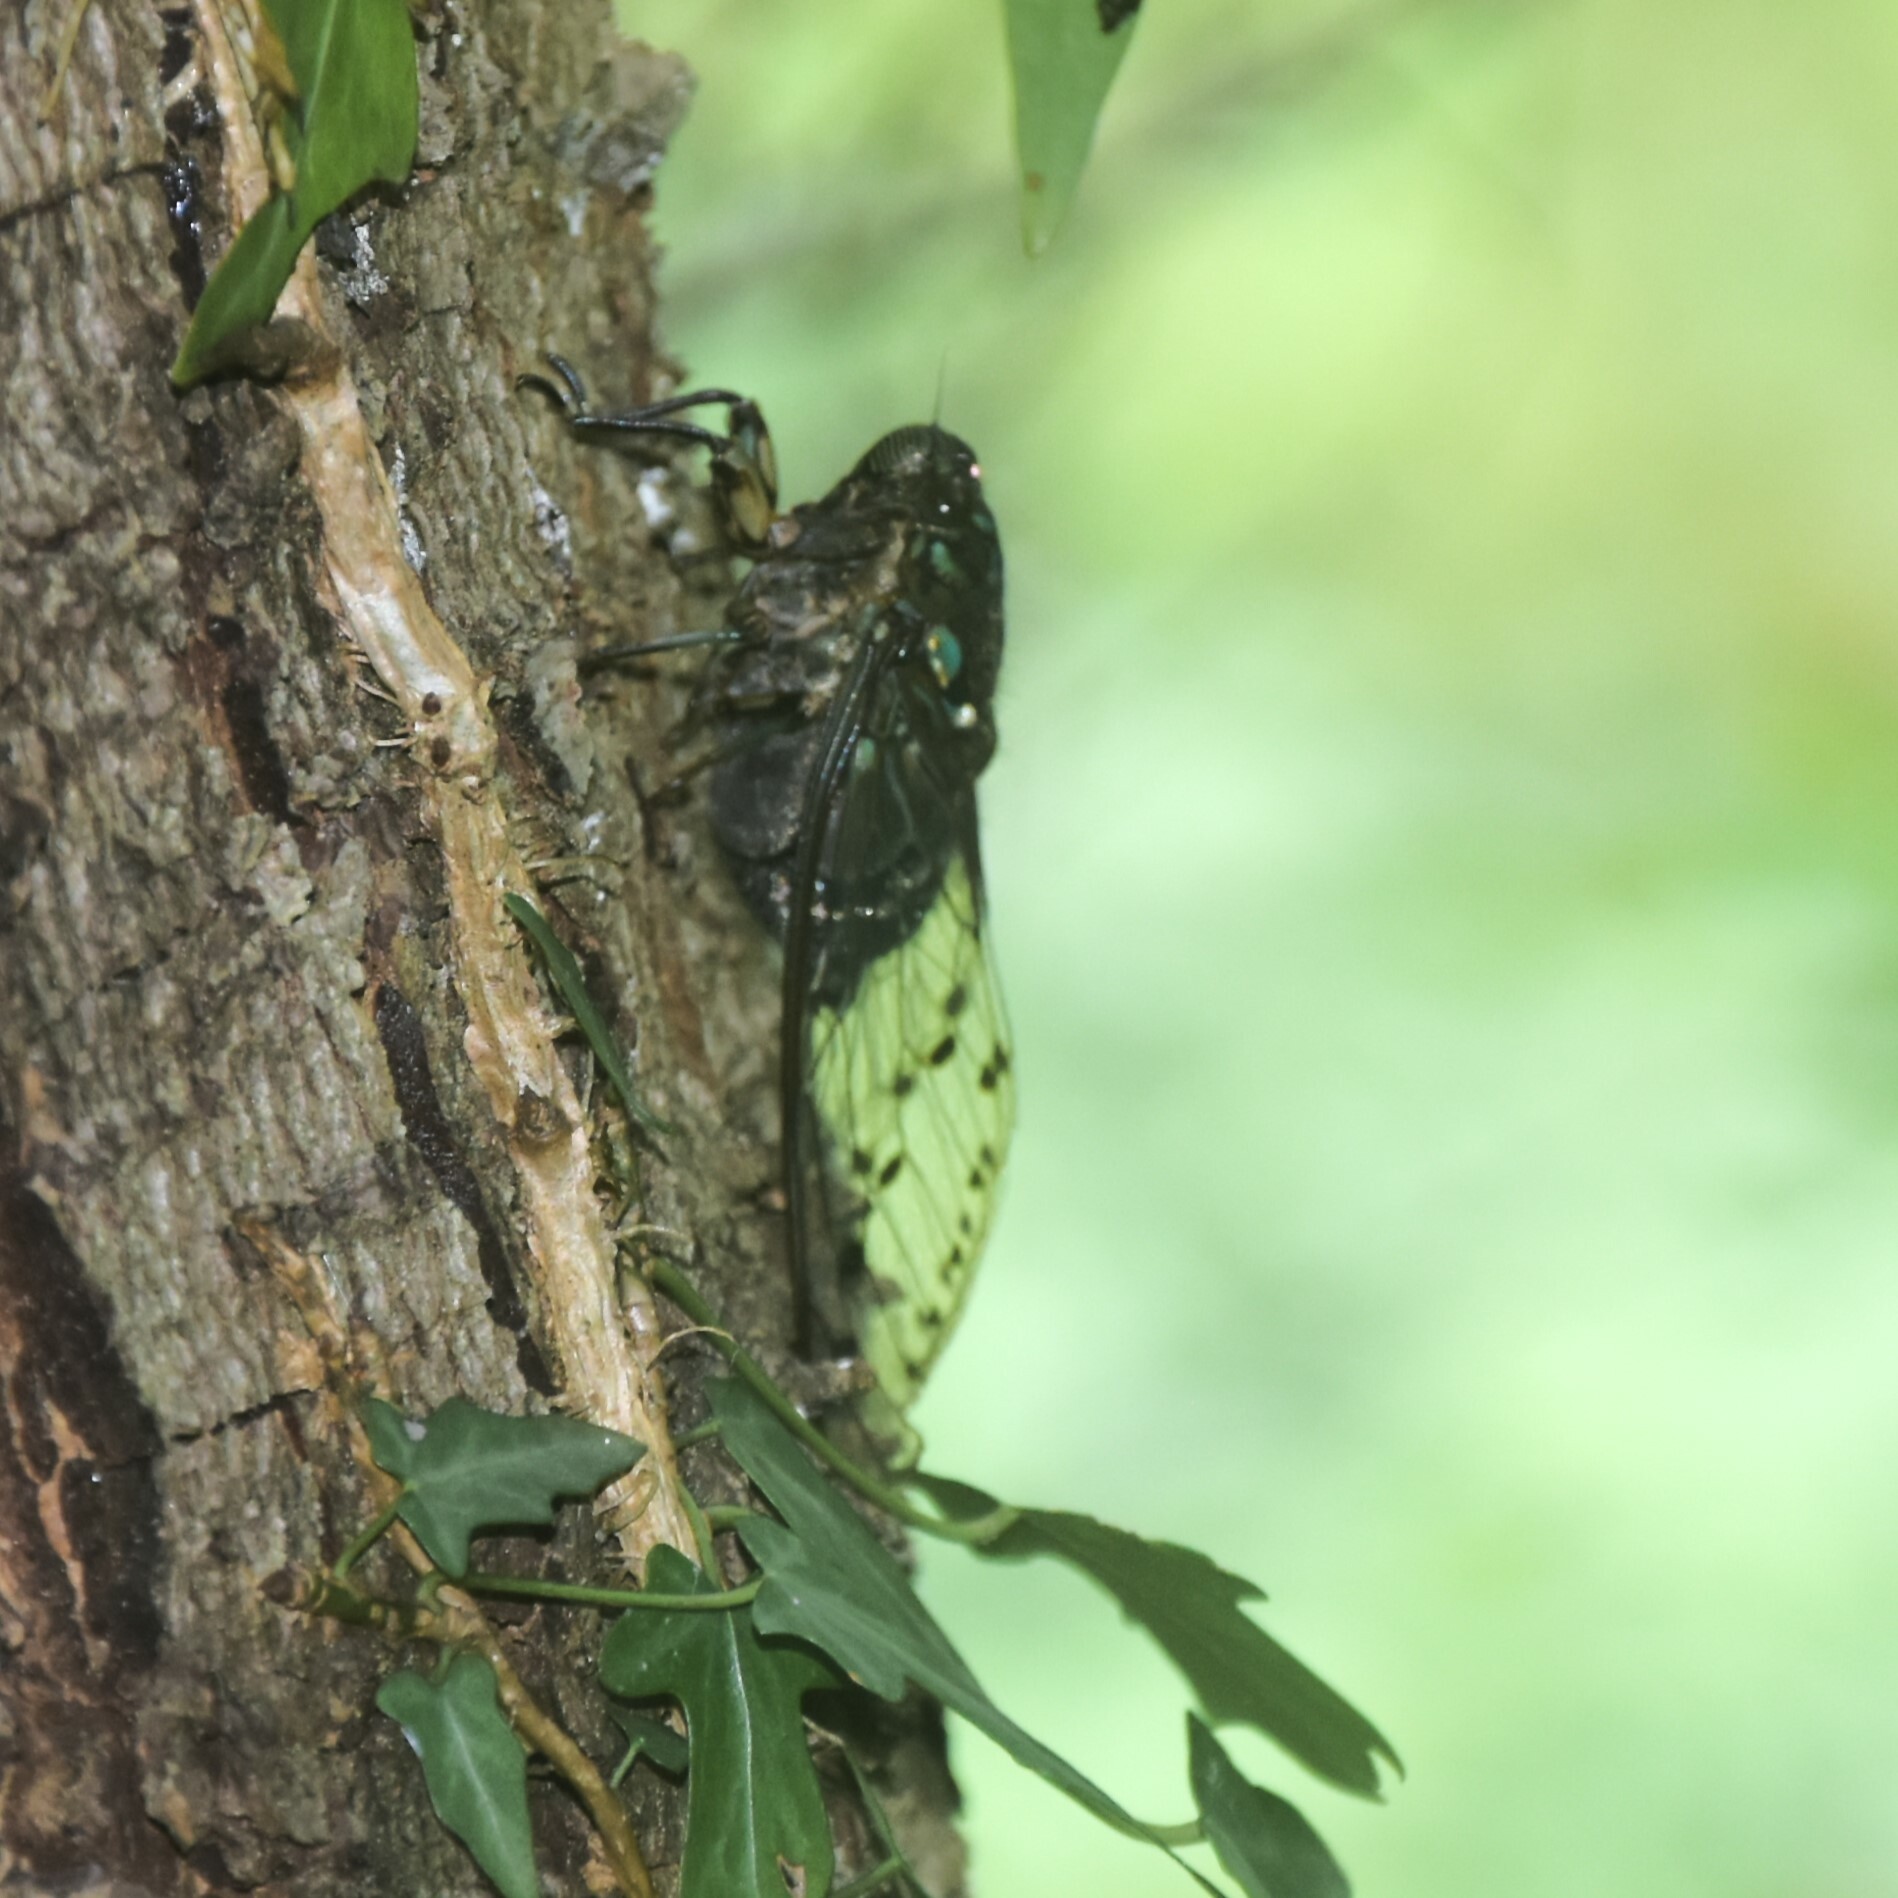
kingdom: Animalia
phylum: Arthropoda
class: Insecta
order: Hemiptera
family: Cicadidae
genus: Hyalessa
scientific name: Hyalessa obnubila
